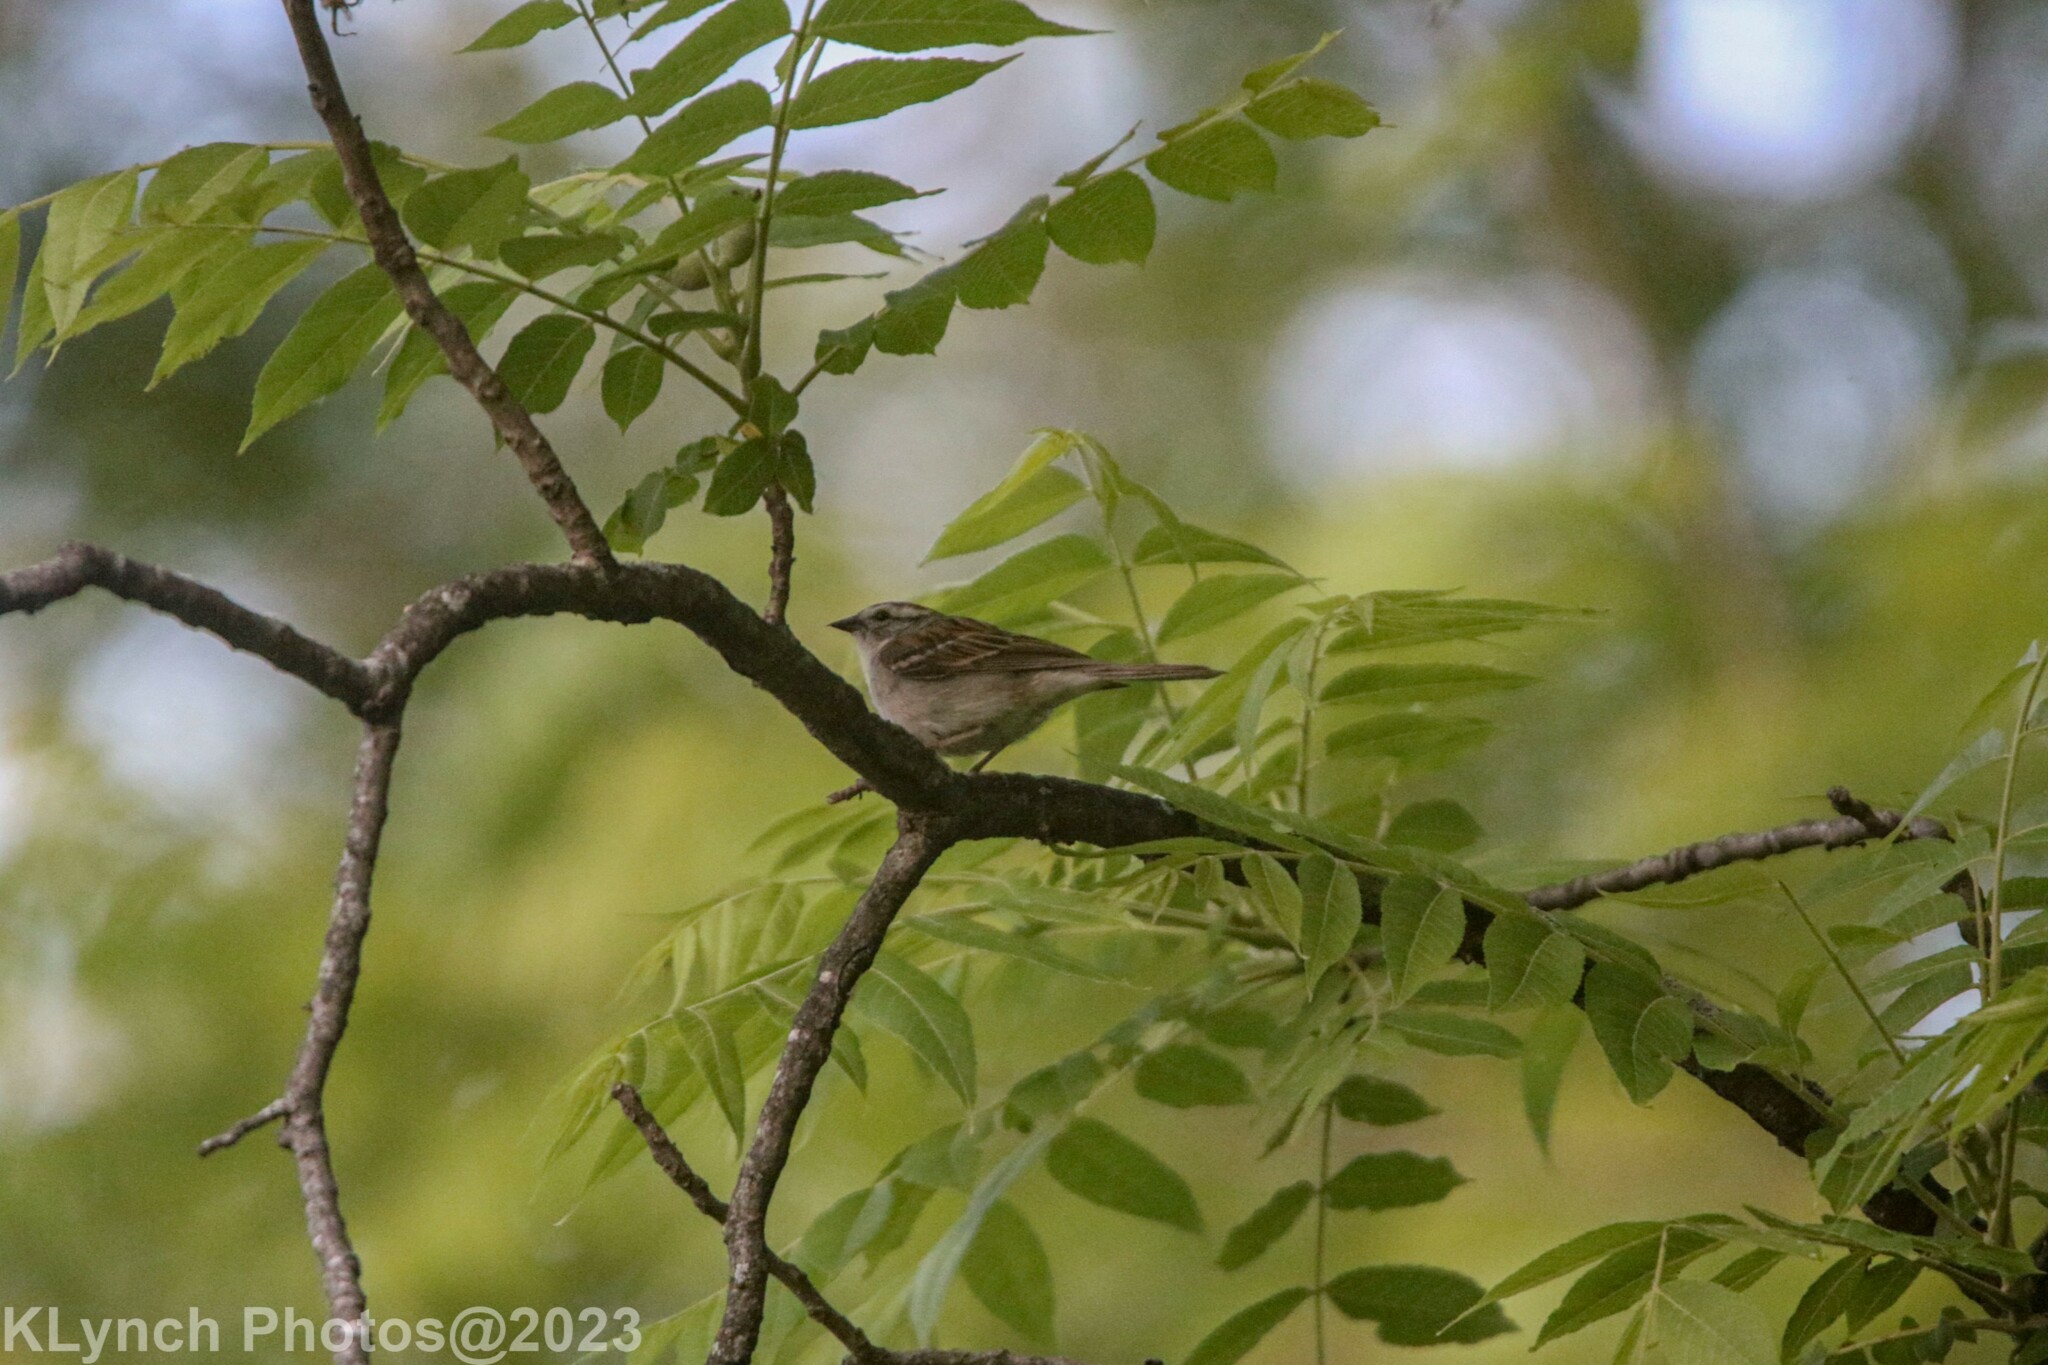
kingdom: Animalia
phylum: Chordata
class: Aves
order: Passeriformes
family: Passerellidae
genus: Spizella
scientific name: Spizella passerina
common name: Chipping sparrow
